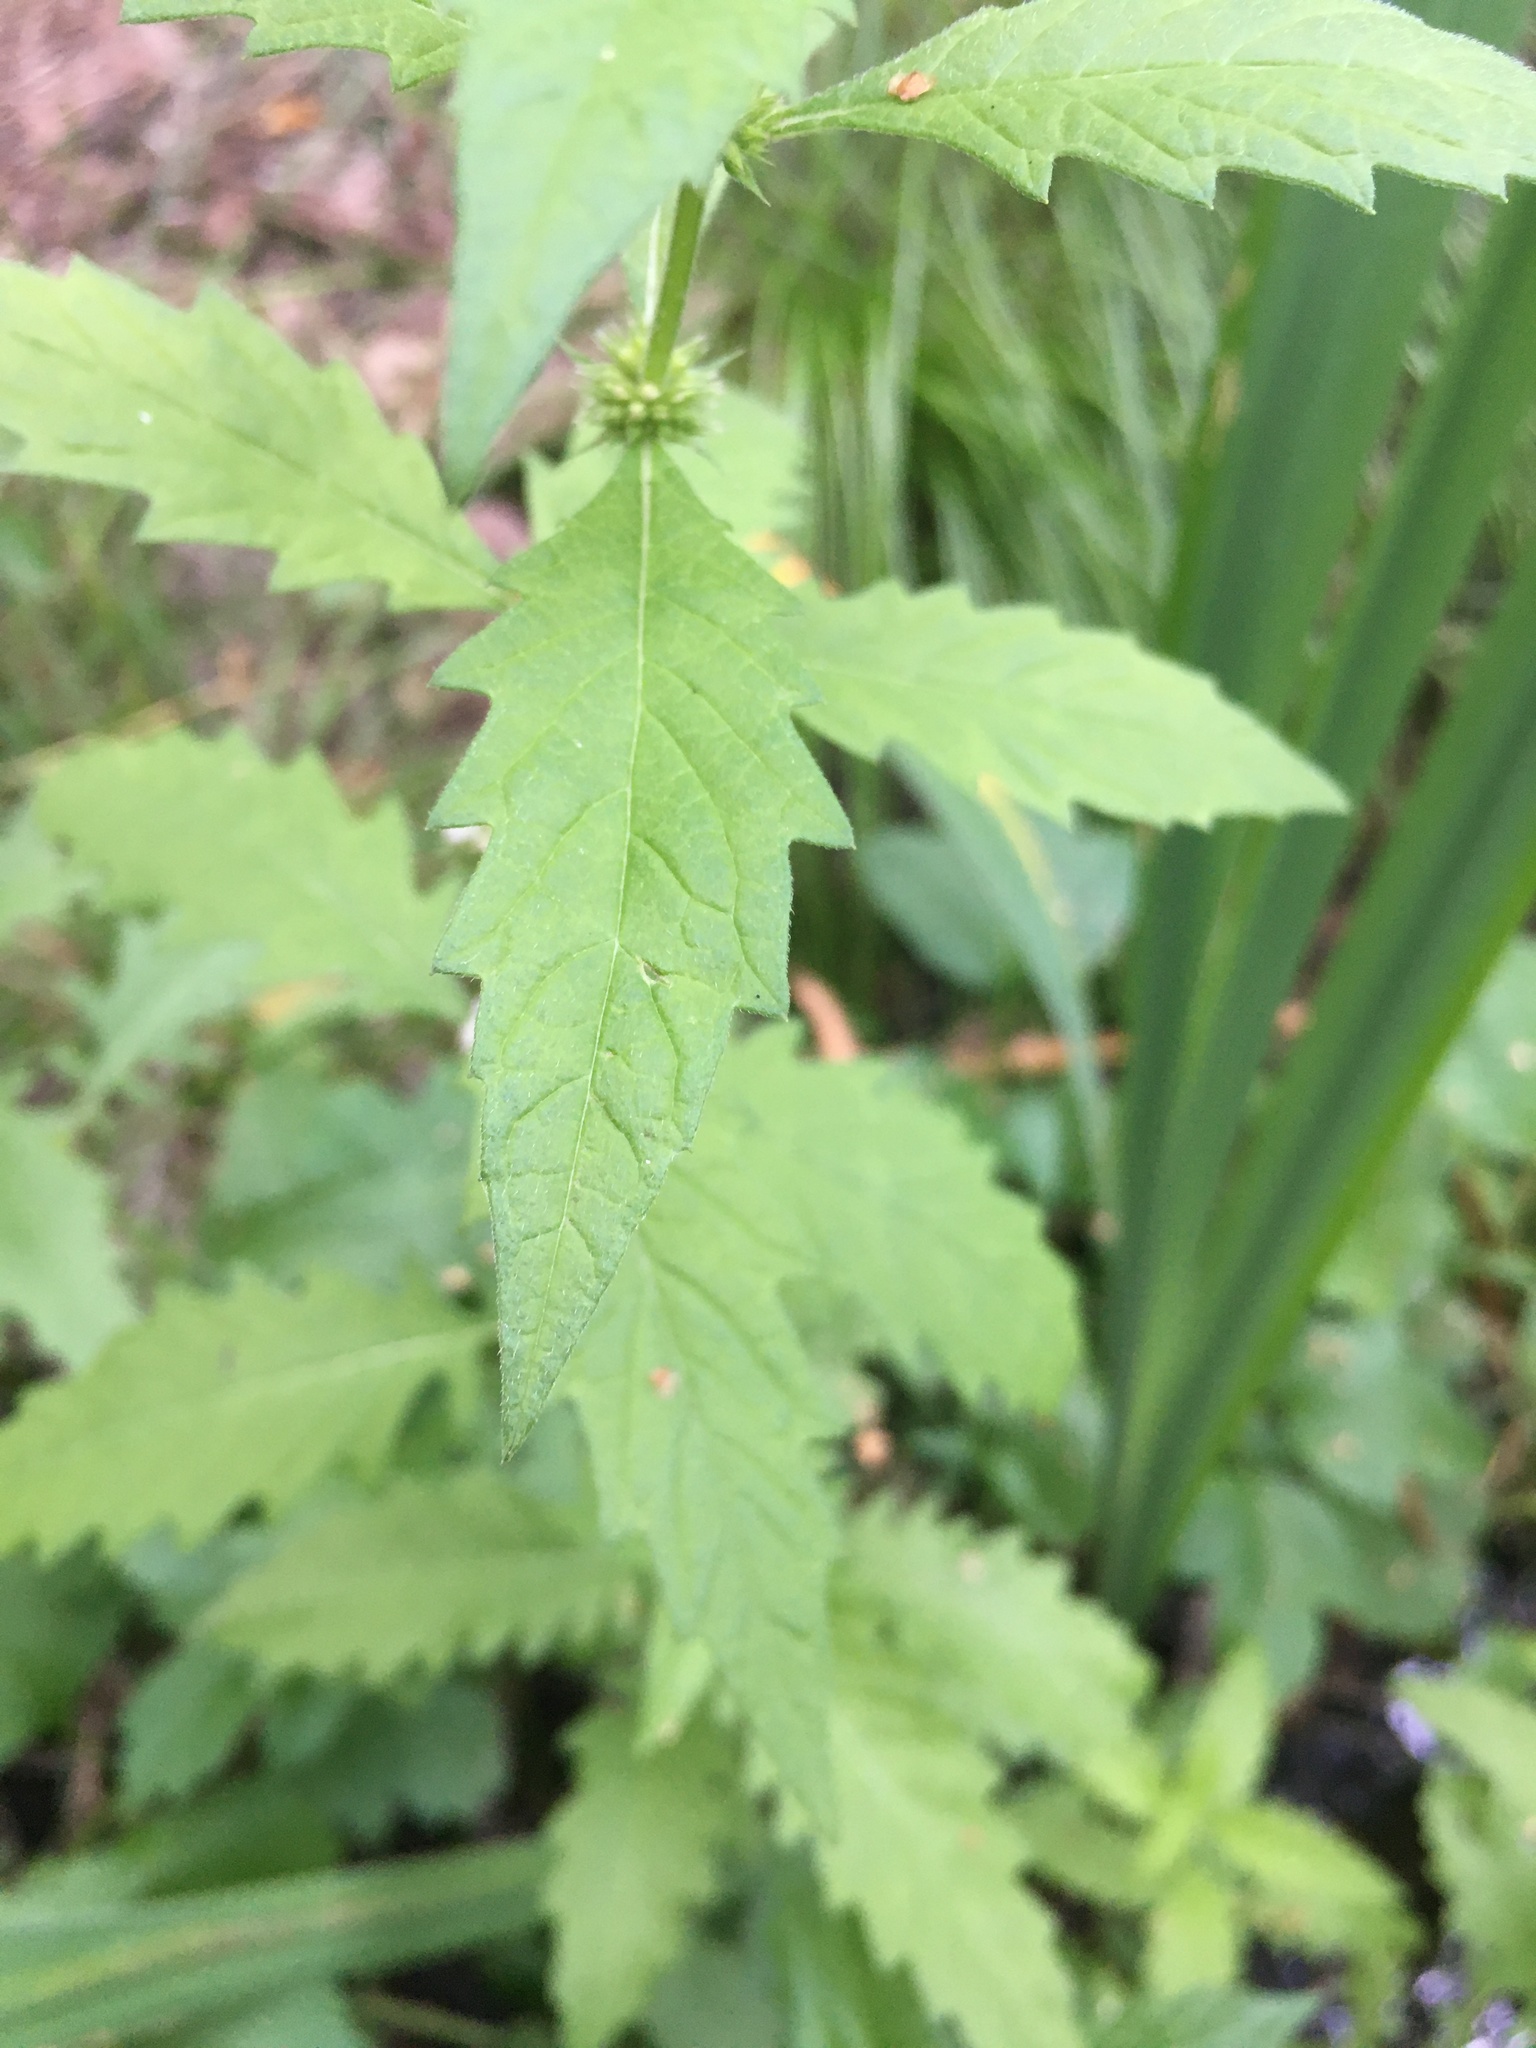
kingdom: Plantae
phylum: Tracheophyta
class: Magnoliopsida
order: Lamiales
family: Lamiaceae
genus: Lycopus
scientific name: Lycopus europaeus
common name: European bugleweed
